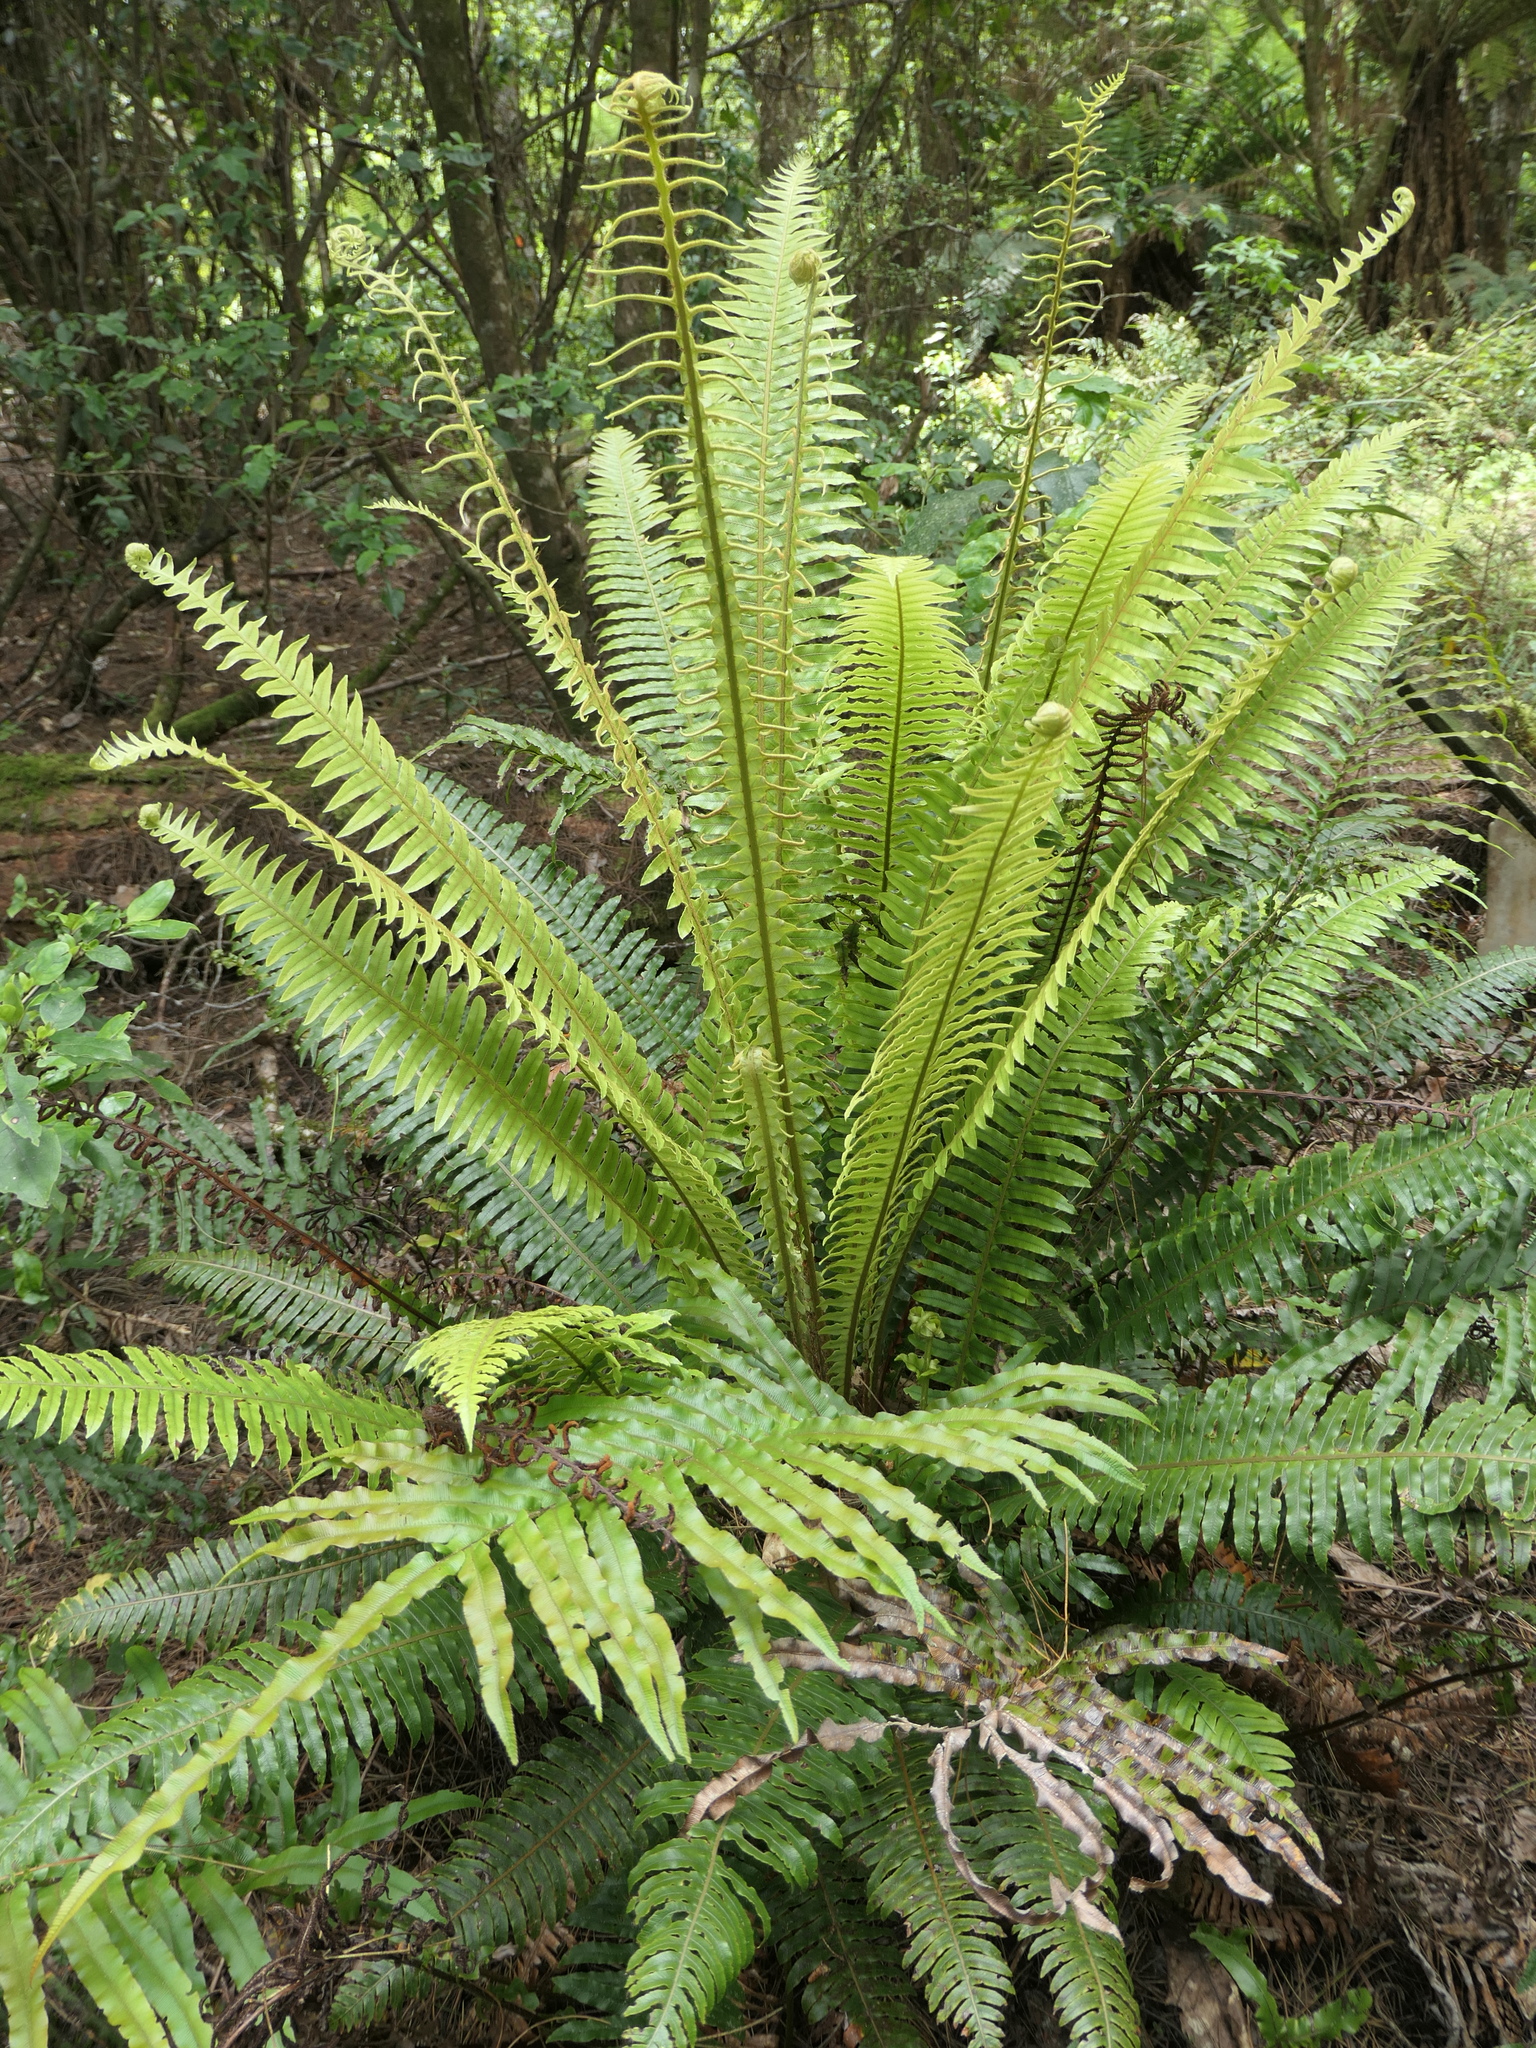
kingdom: Plantae
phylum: Tracheophyta
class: Polypodiopsida
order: Polypodiales
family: Blechnaceae
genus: Lomaria
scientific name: Lomaria discolor
